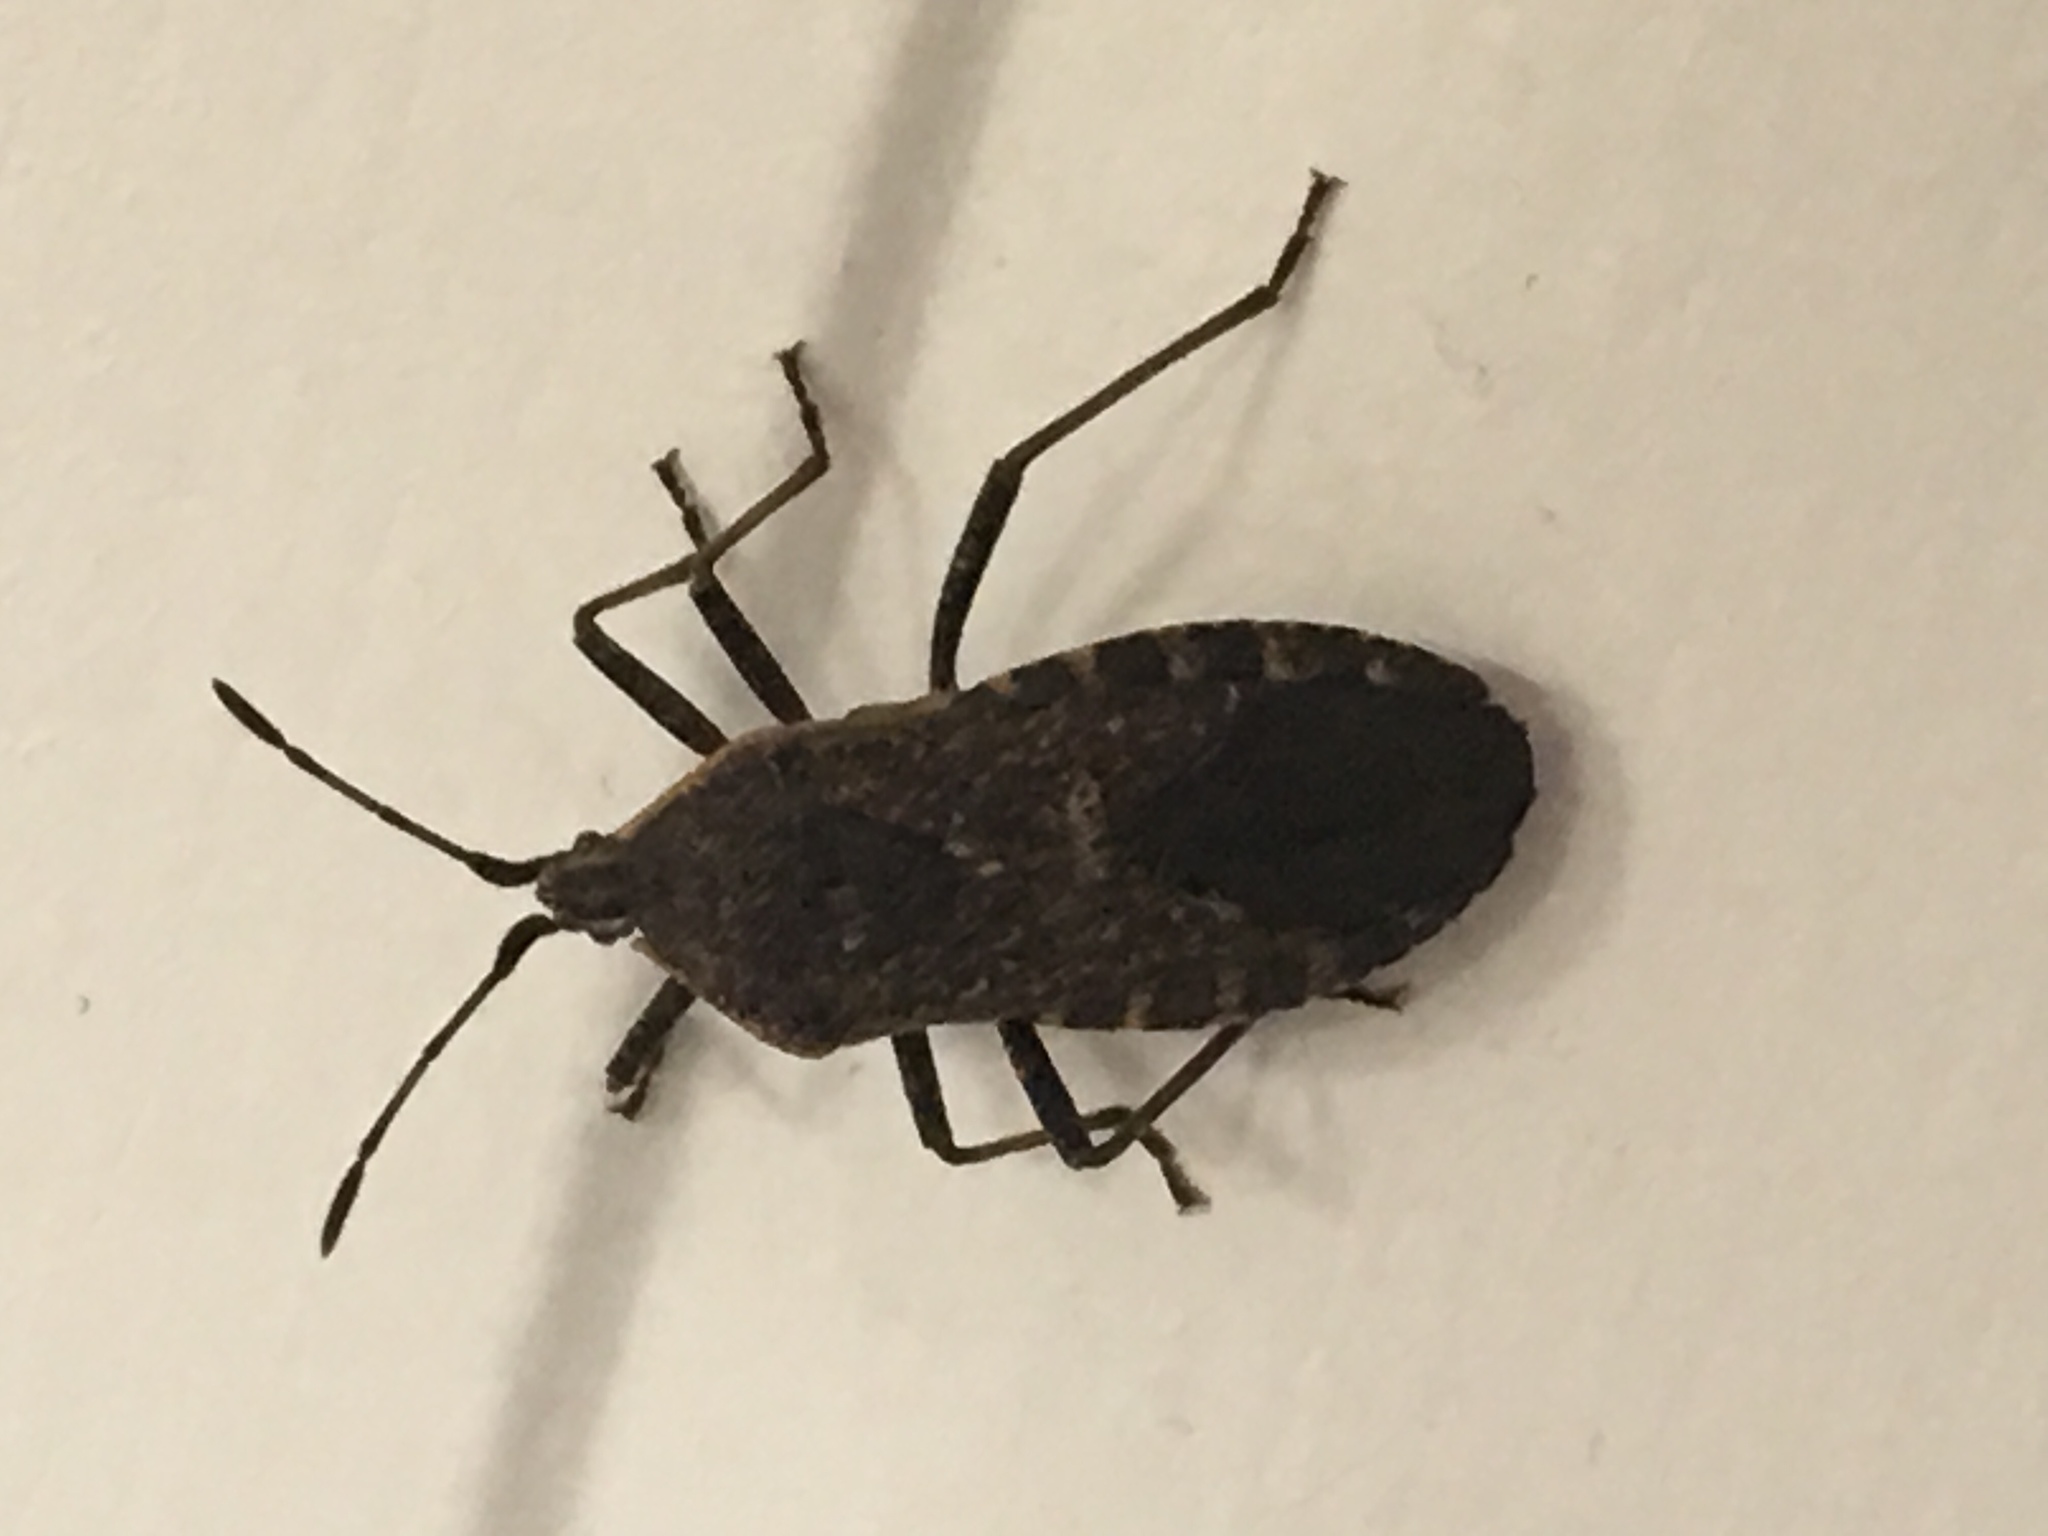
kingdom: Animalia
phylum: Arthropoda
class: Insecta
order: Hemiptera
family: Coreidae
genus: Anasa
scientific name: Anasa tristis
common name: Squash bug
